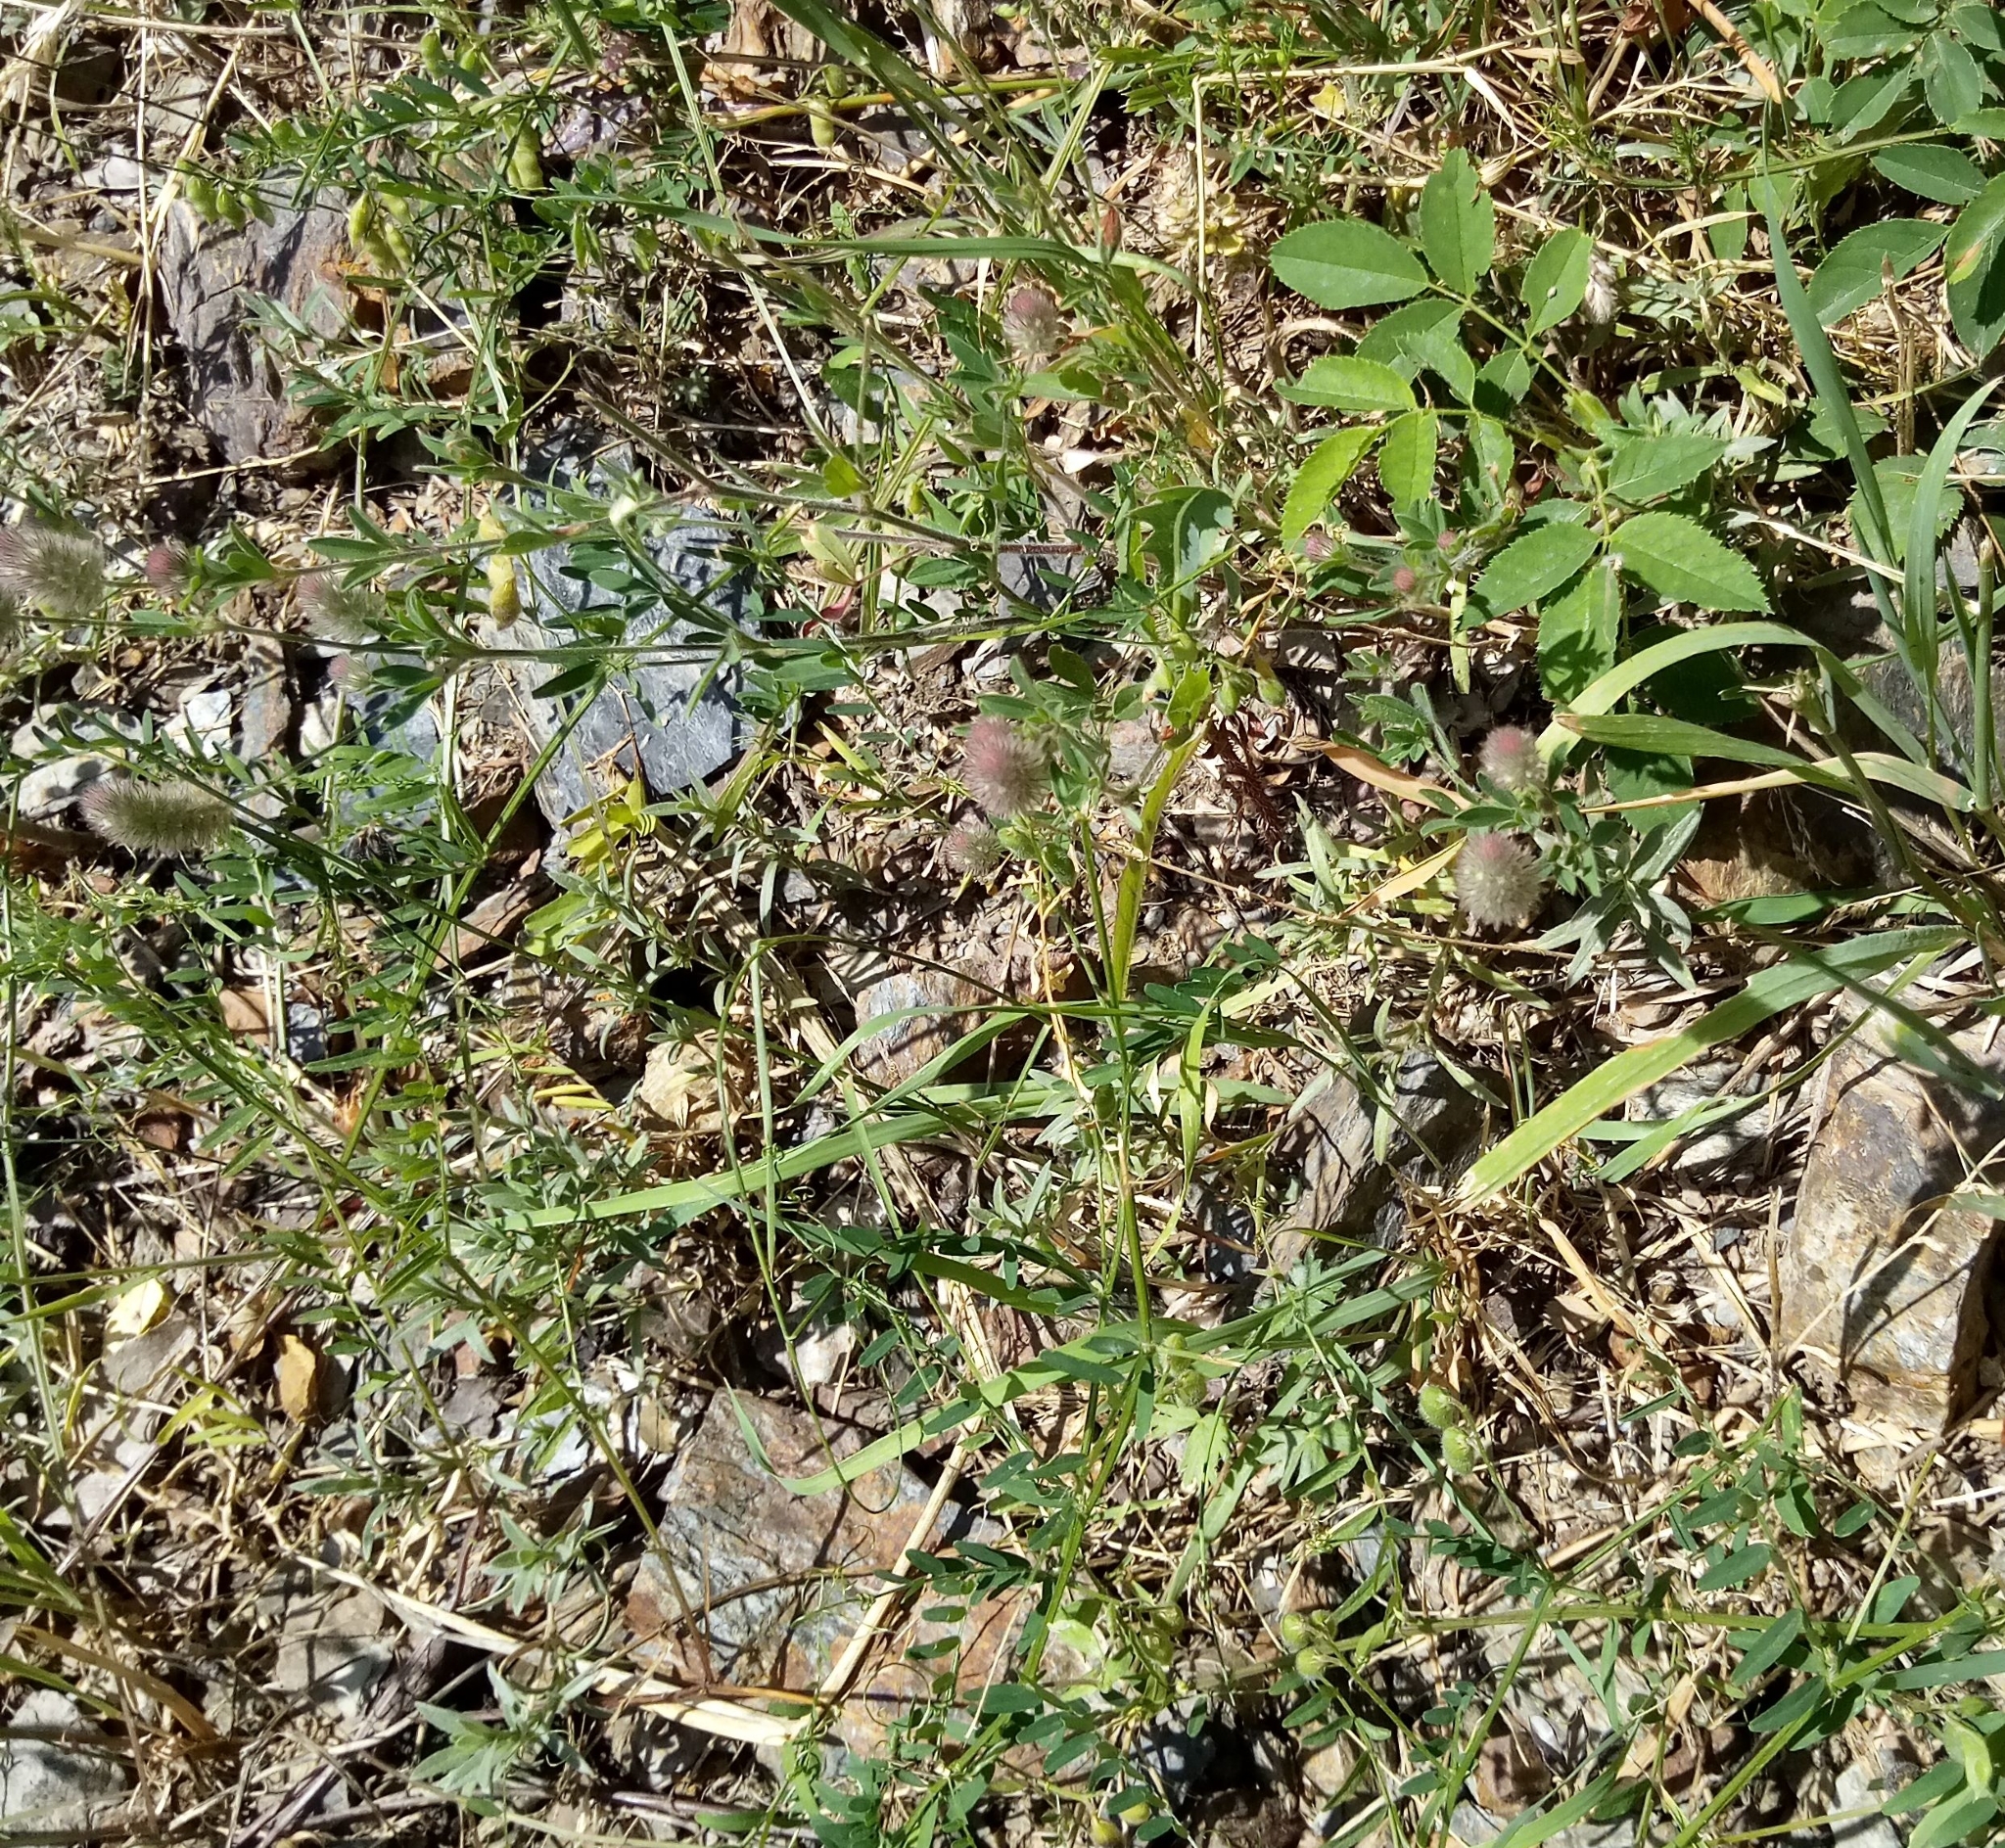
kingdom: Plantae
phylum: Tracheophyta
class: Magnoliopsida
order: Fabales
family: Fabaceae
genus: Trifolium
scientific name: Trifolium arvense
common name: Hare's-foot clover
